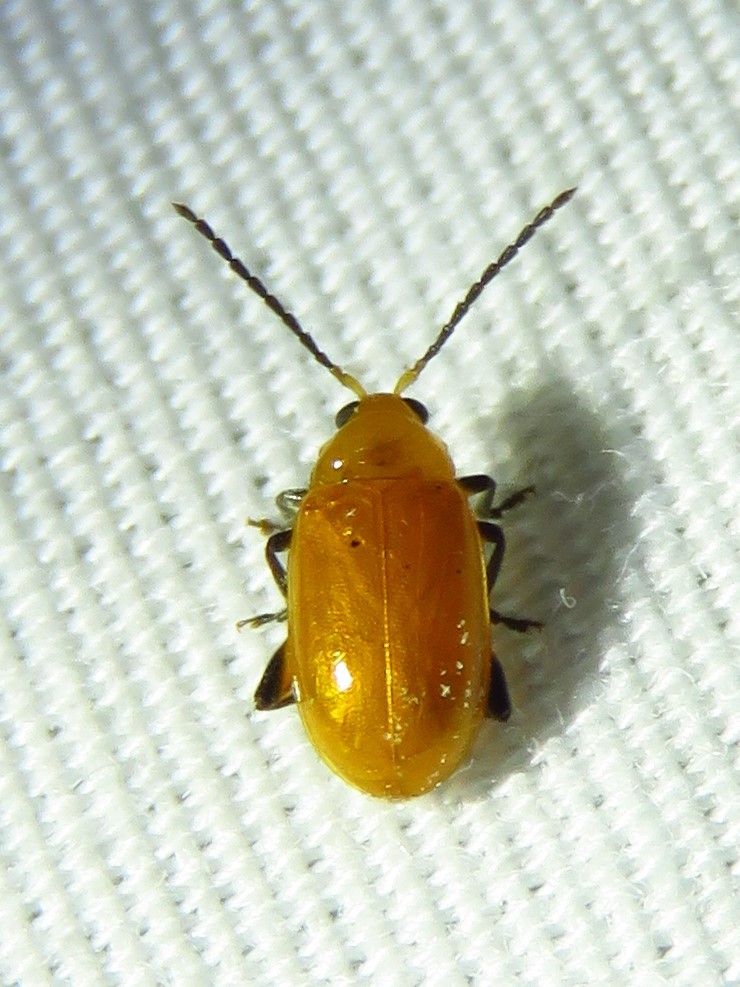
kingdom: Animalia
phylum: Arthropoda
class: Insecta
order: Coleoptera
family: Chrysomelidae
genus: Parchicola
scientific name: Parchicola tibialis
